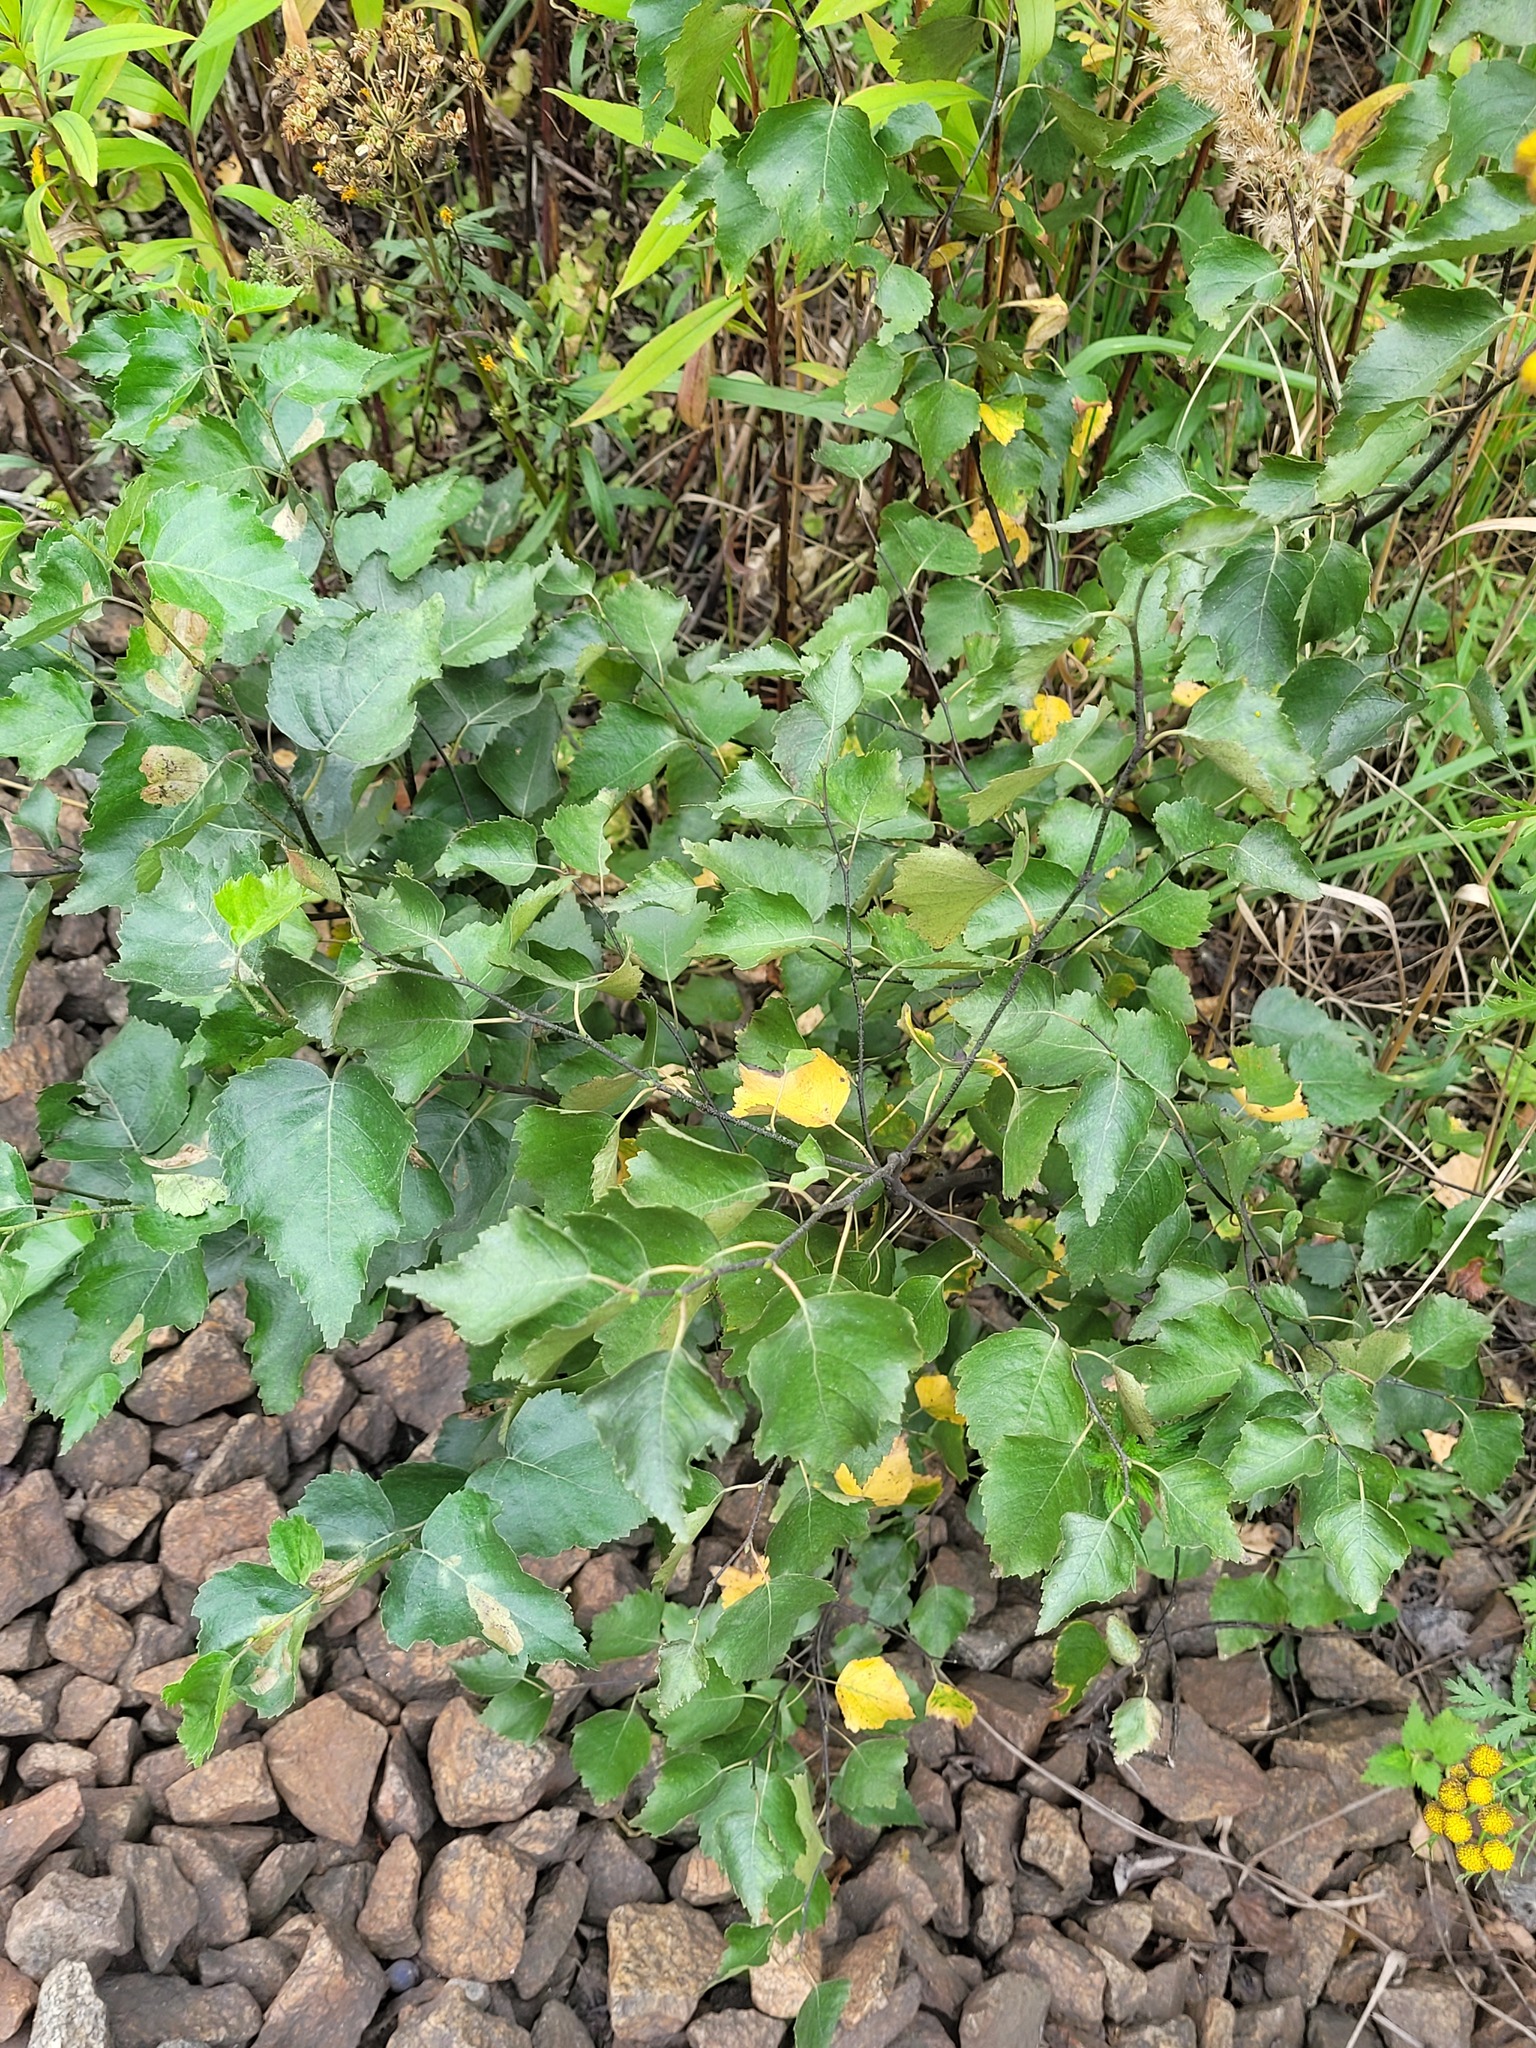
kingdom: Plantae
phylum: Tracheophyta
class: Magnoliopsida
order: Fagales
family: Betulaceae
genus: Betula
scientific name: Betula pendula
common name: Silver birch
